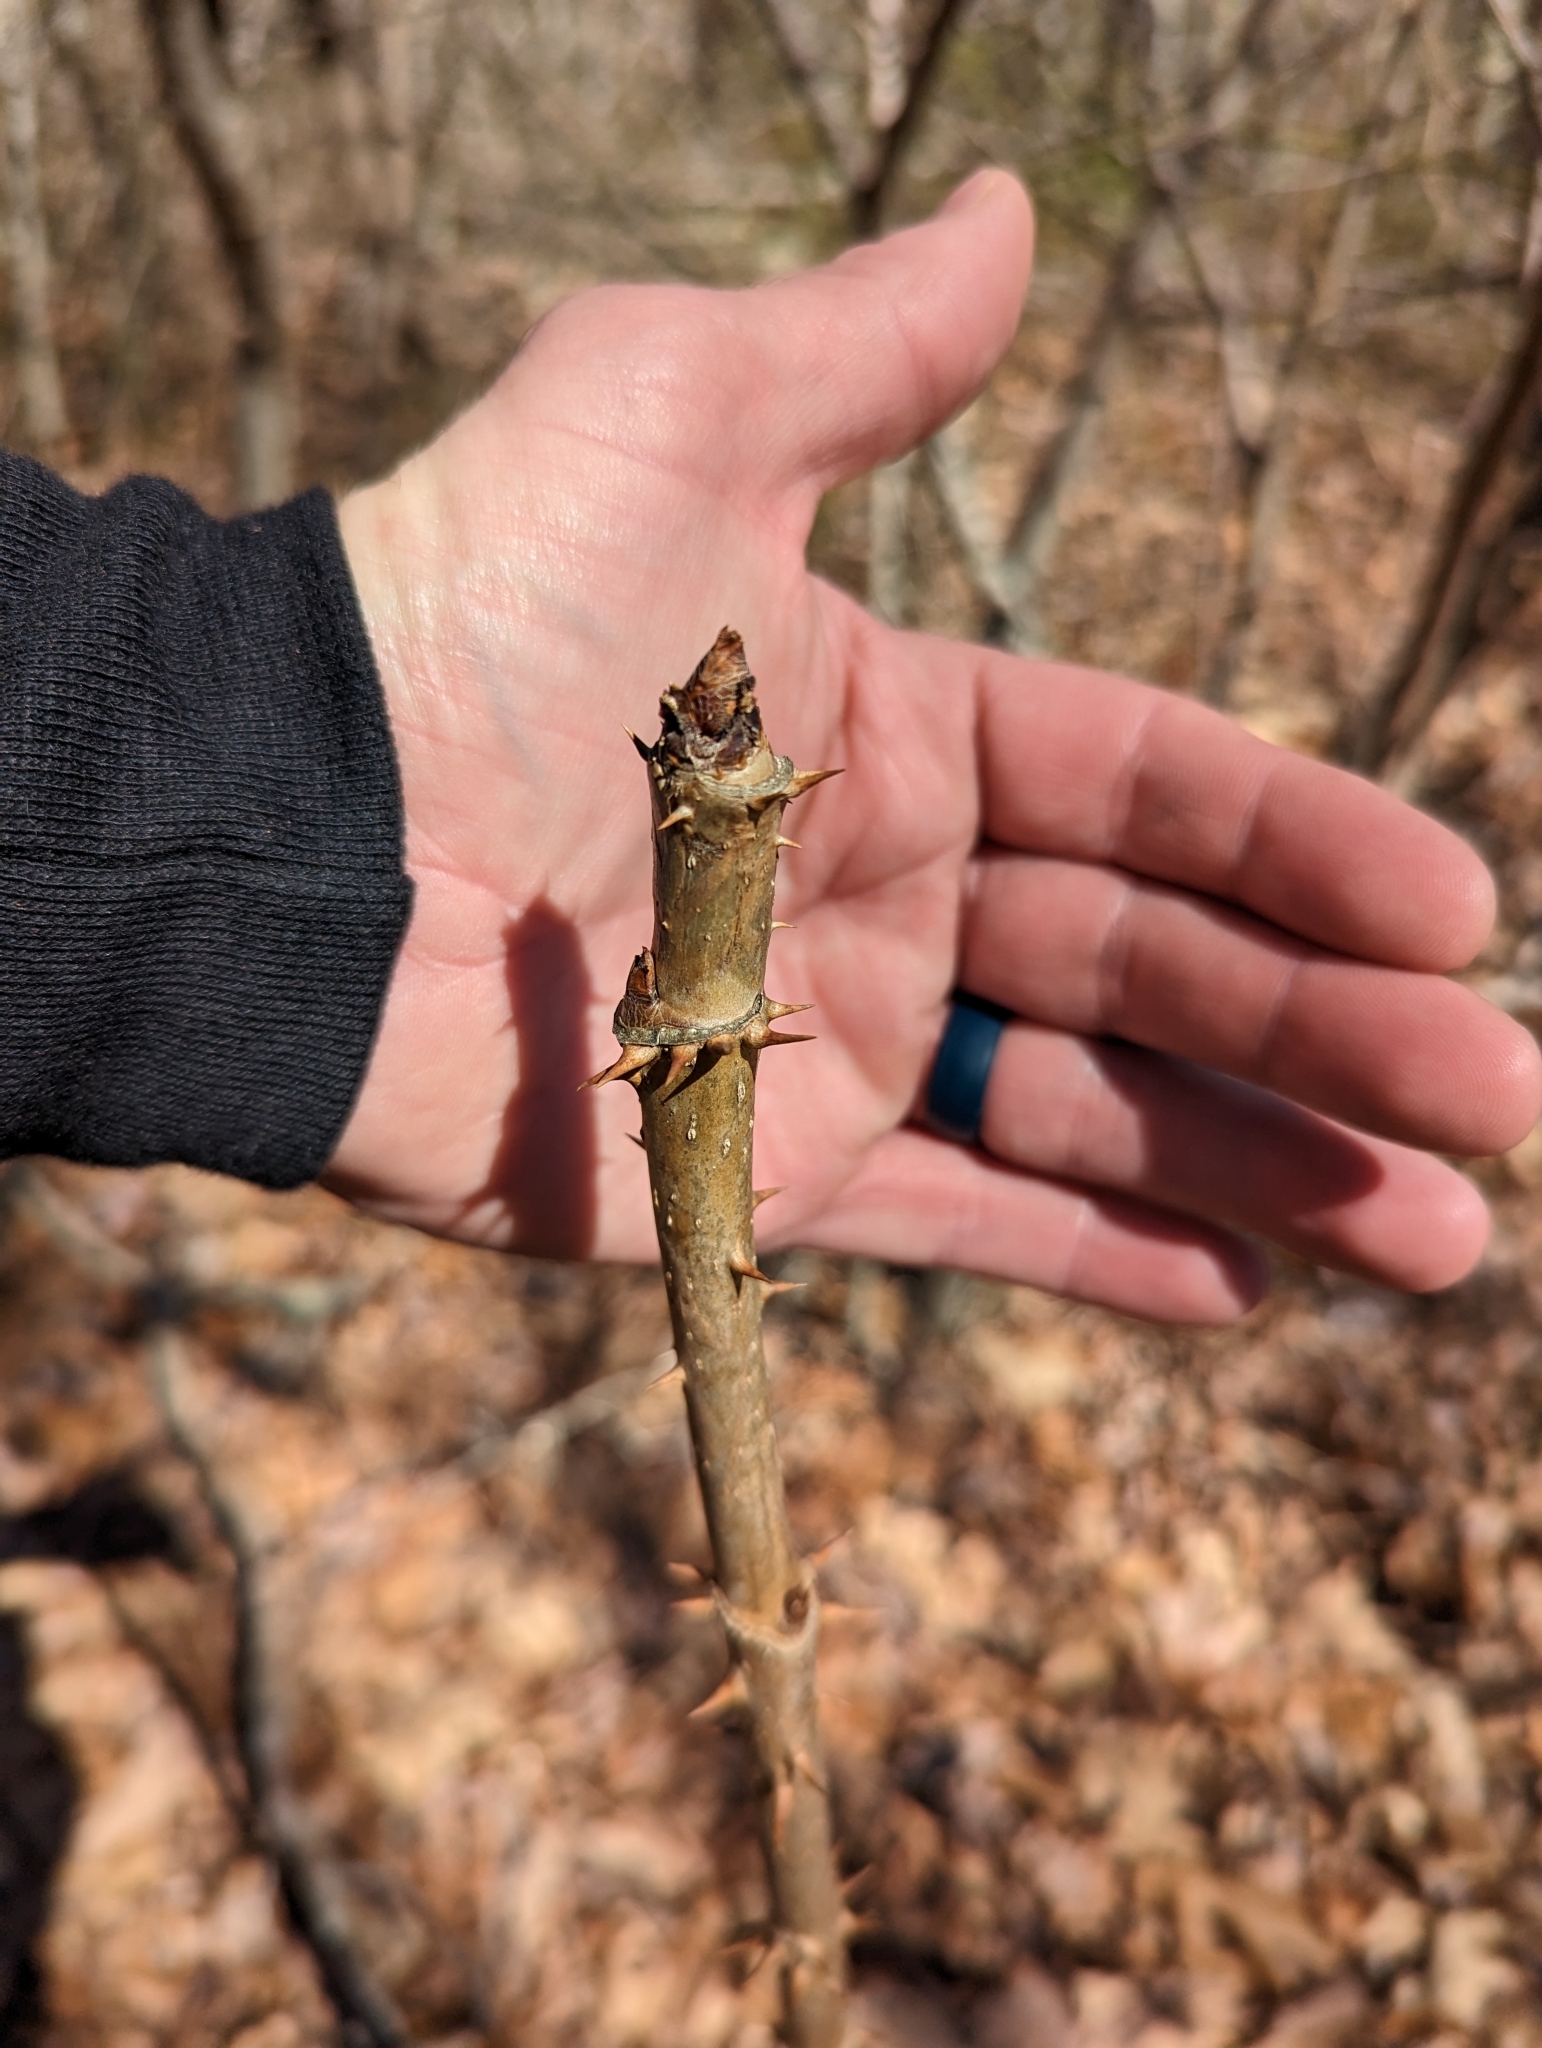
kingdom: Plantae
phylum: Tracheophyta
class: Magnoliopsida
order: Apiales
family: Araliaceae
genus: Aralia
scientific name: Aralia spinosa
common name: Hercules'-club
